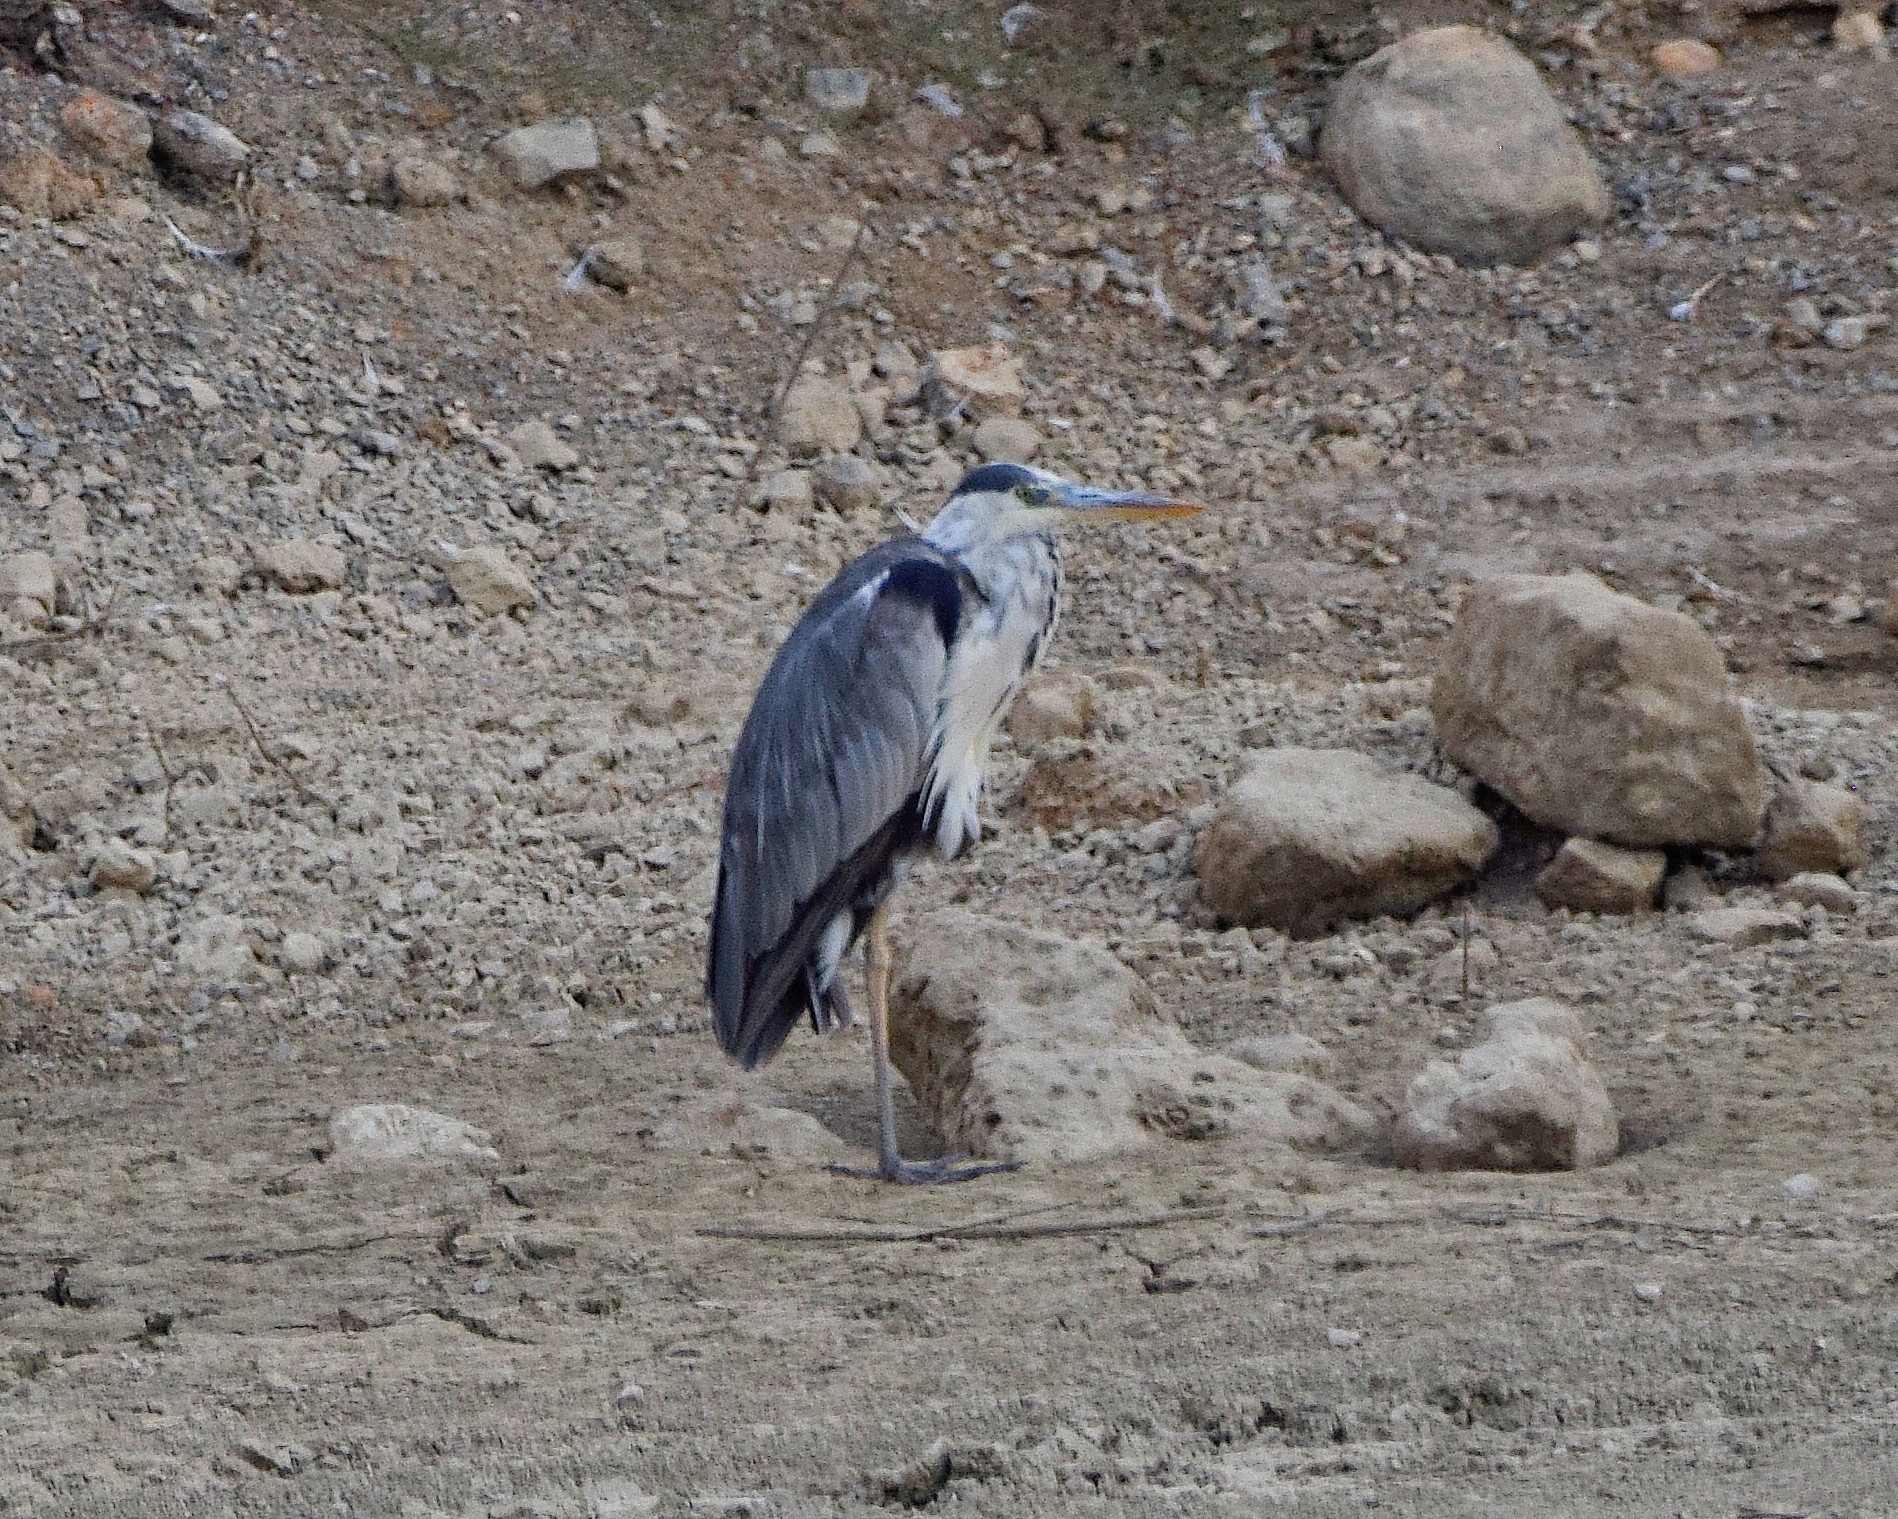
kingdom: Animalia
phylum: Chordata
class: Aves
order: Pelecaniformes
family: Ardeidae
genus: Ardea
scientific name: Ardea cinerea
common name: Grey heron
